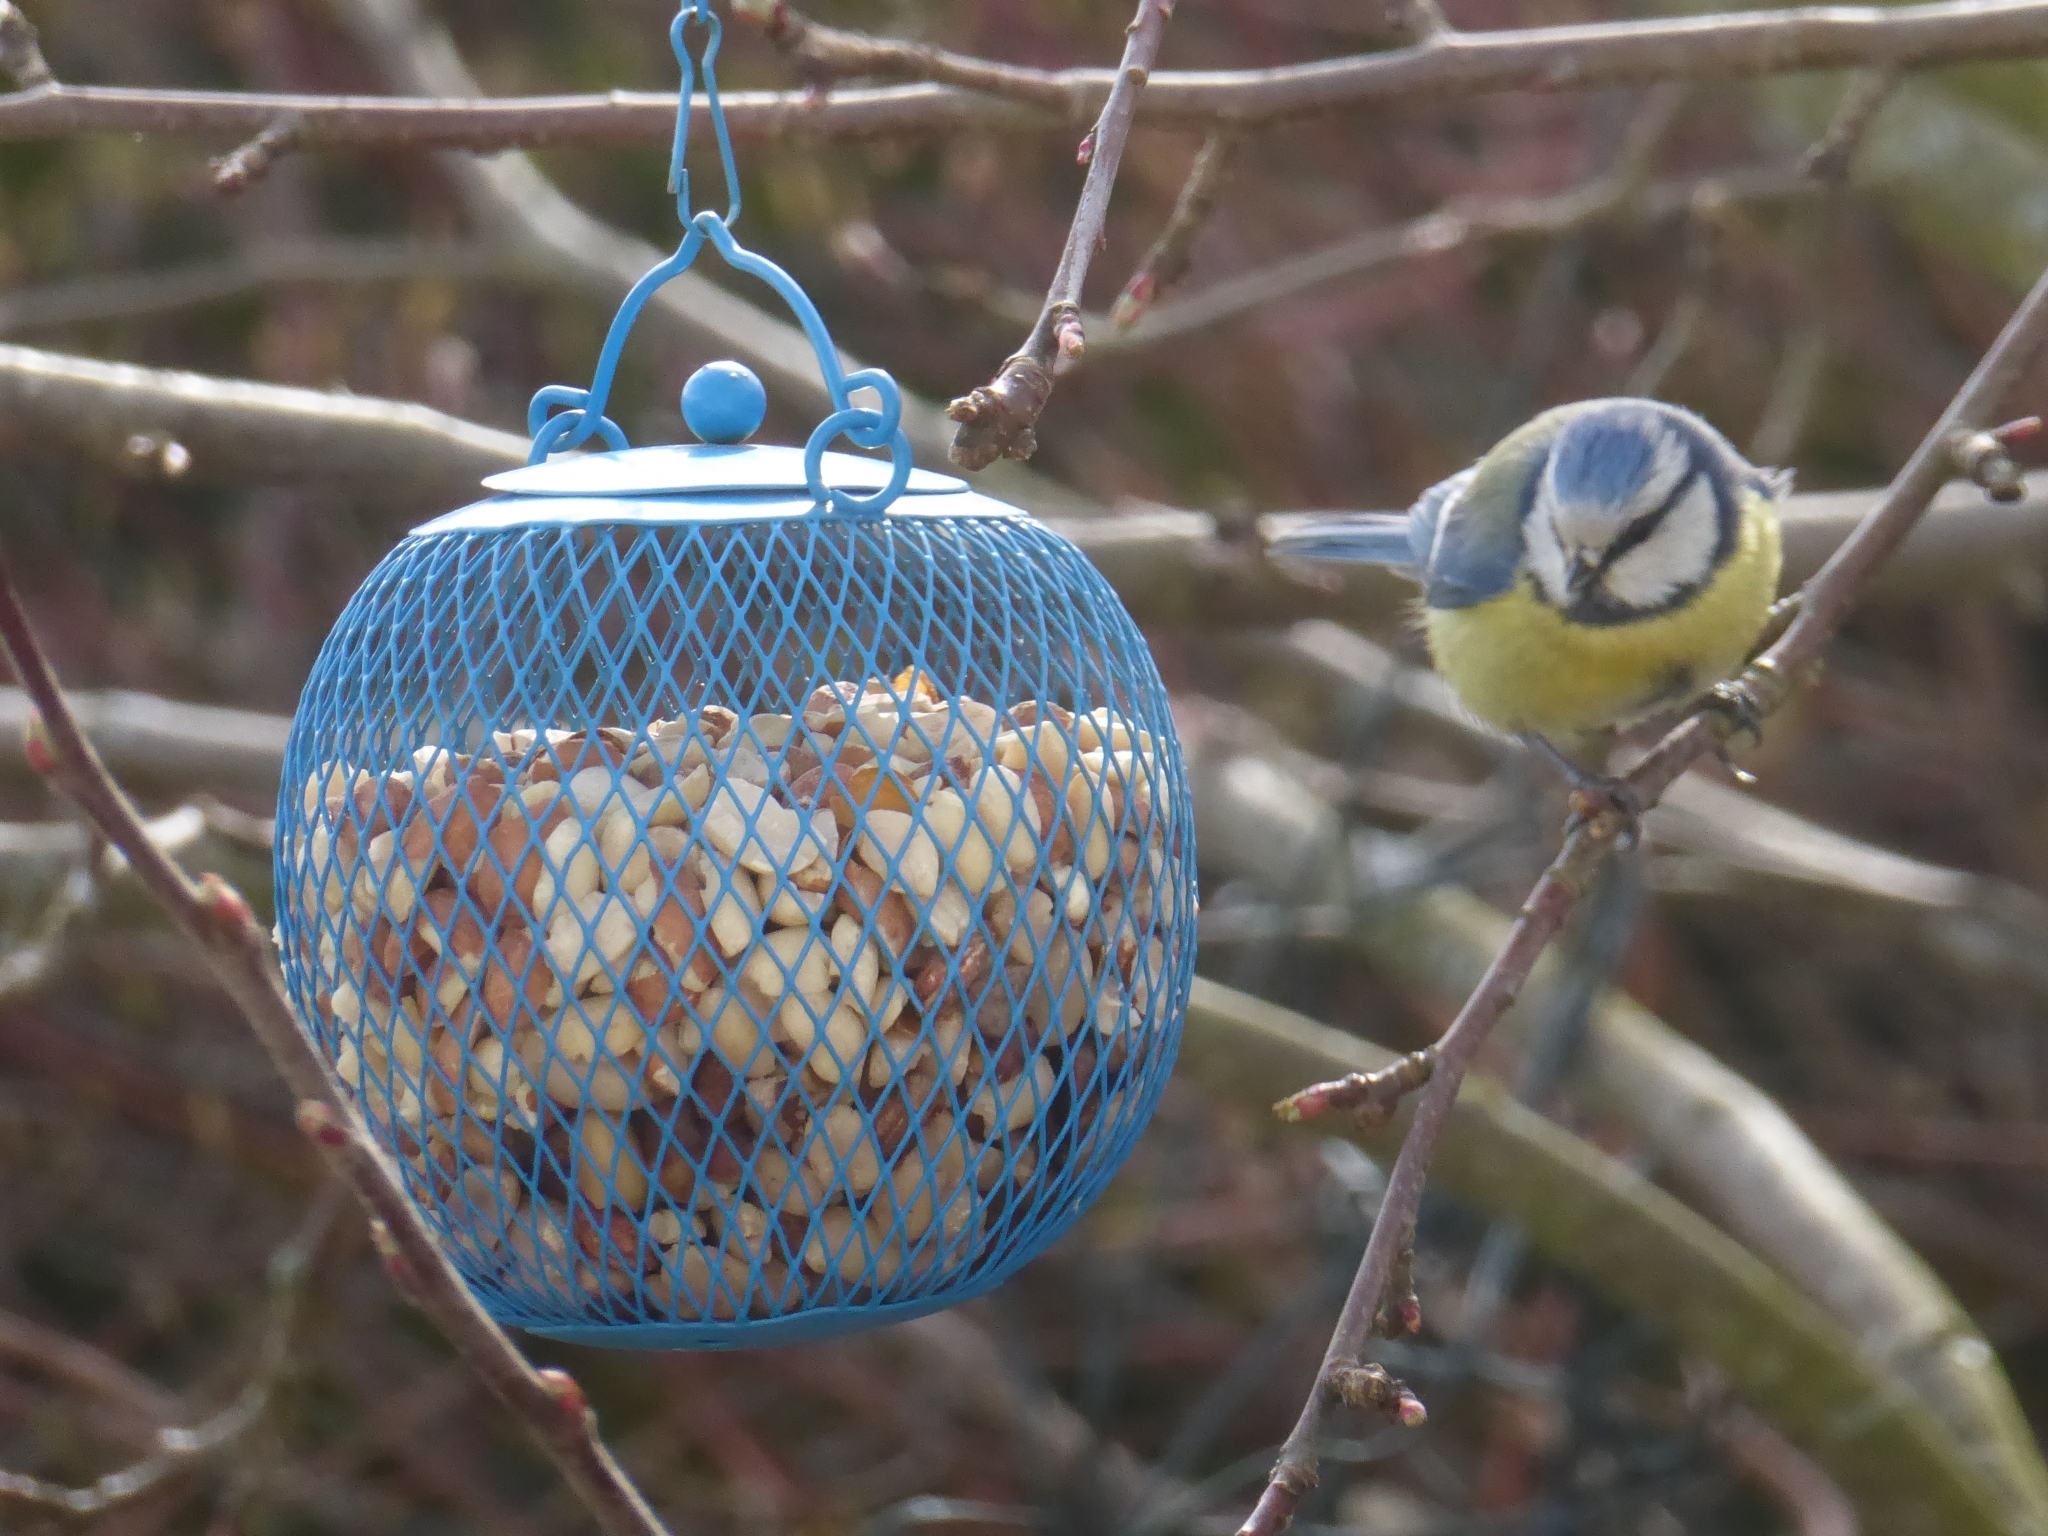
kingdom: Animalia
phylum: Chordata
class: Aves
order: Passeriformes
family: Paridae
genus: Cyanistes
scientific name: Cyanistes caeruleus
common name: Eurasian blue tit
